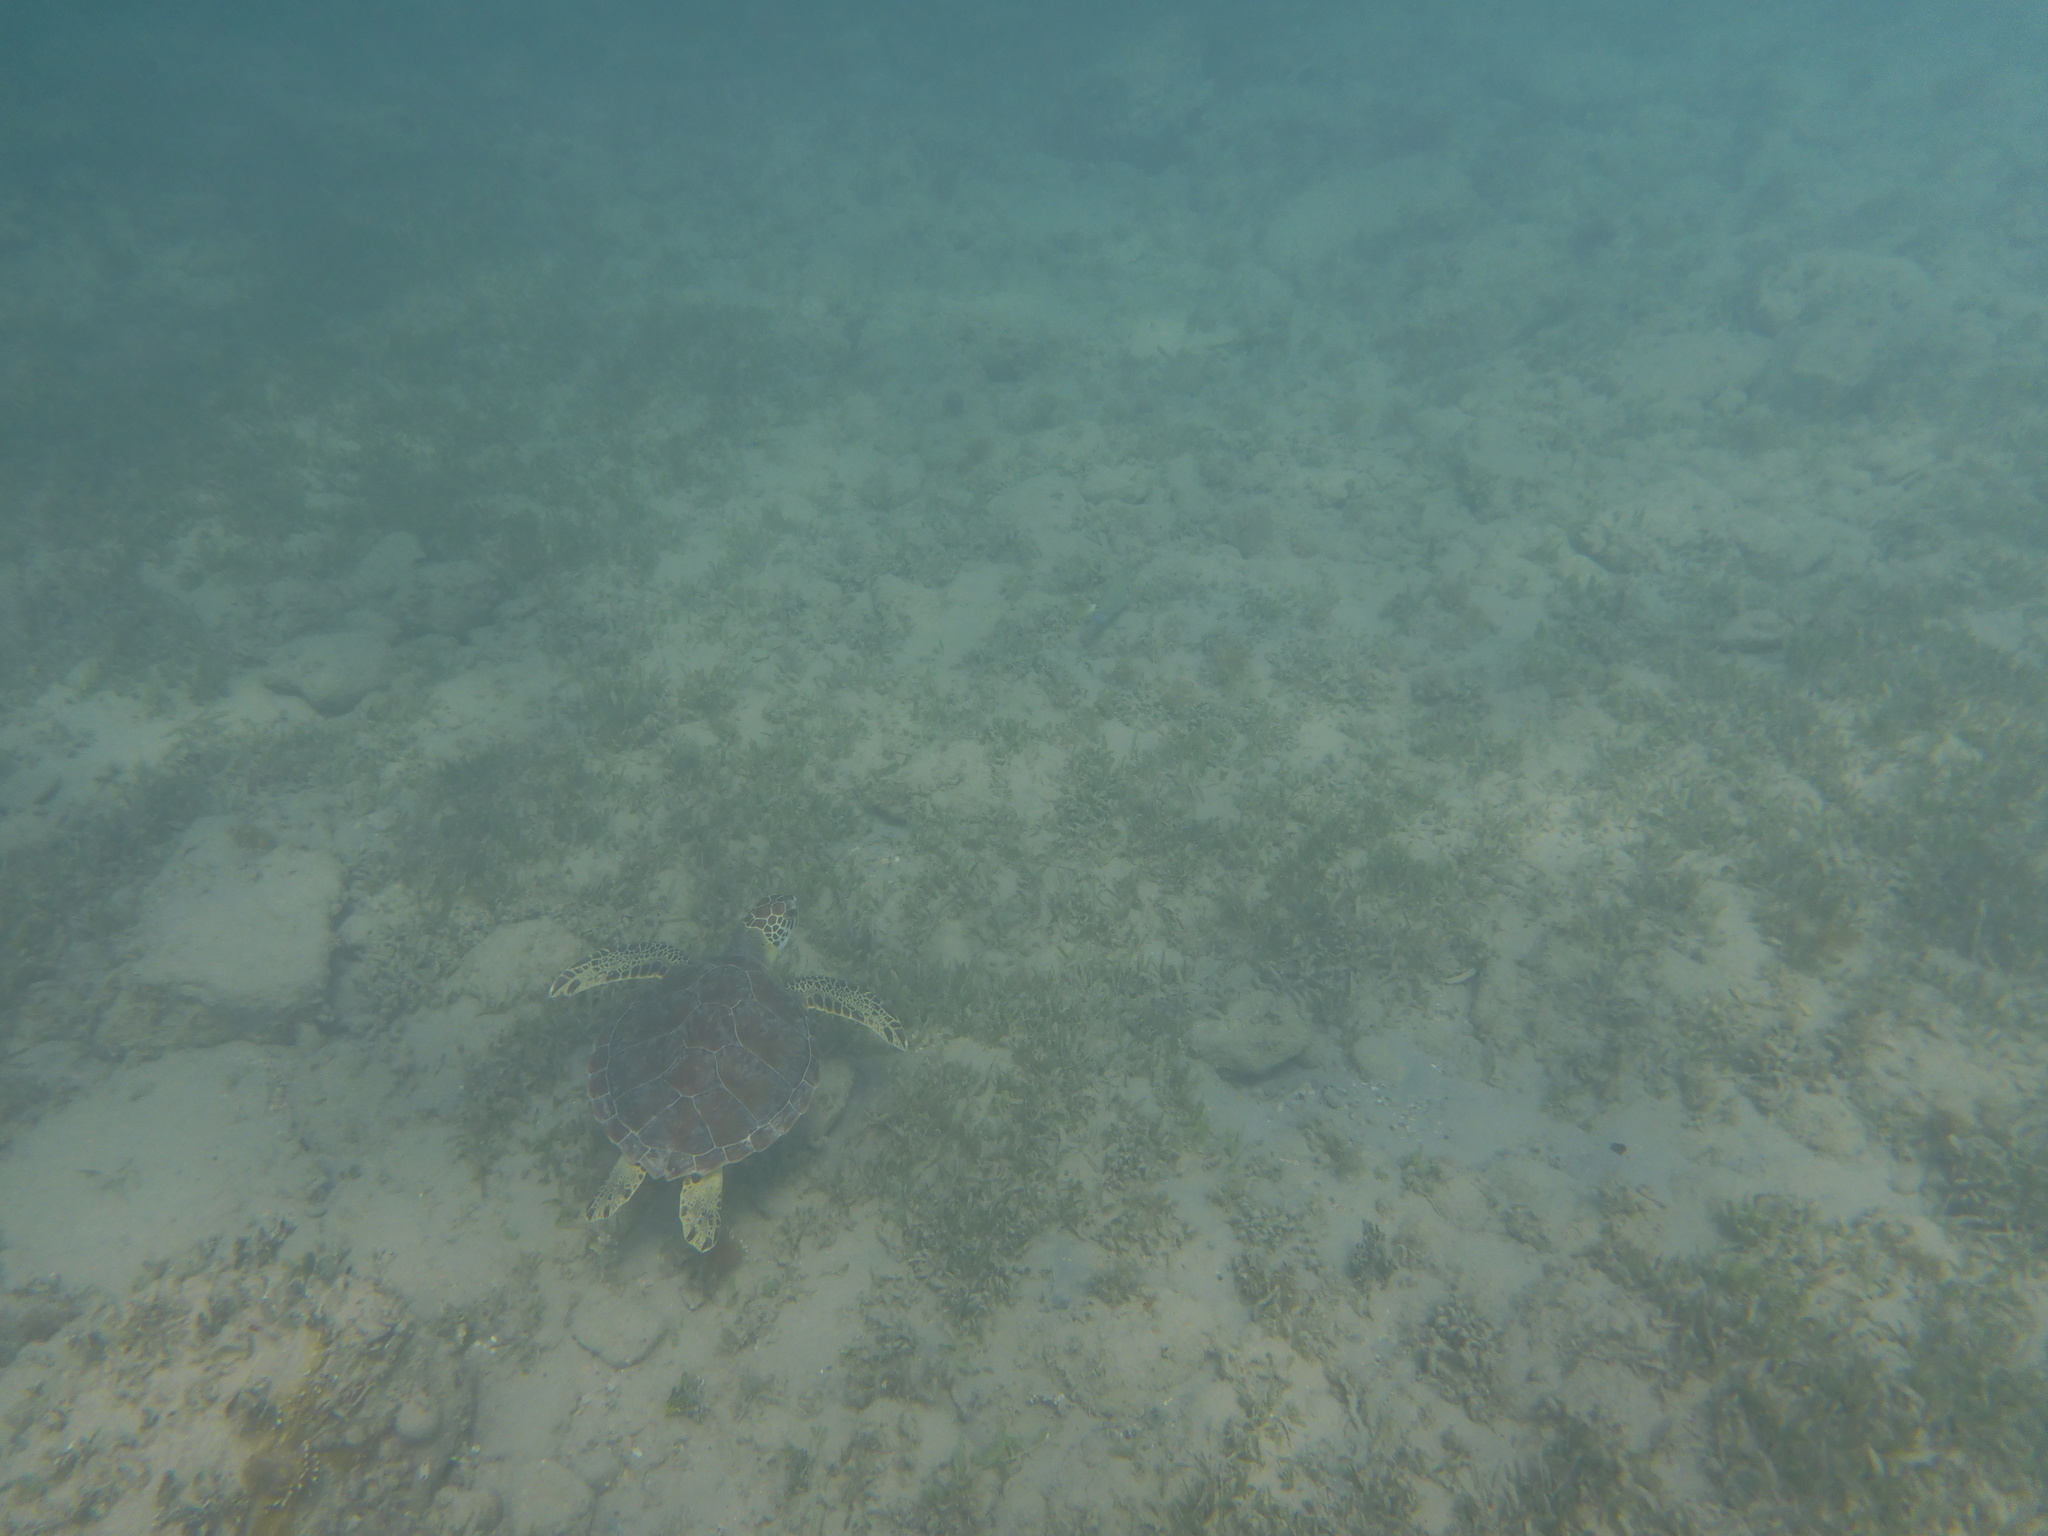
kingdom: Animalia
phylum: Chordata
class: Testudines
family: Cheloniidae
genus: Chelonia
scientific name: Chelonia mydas
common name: Green turtle
